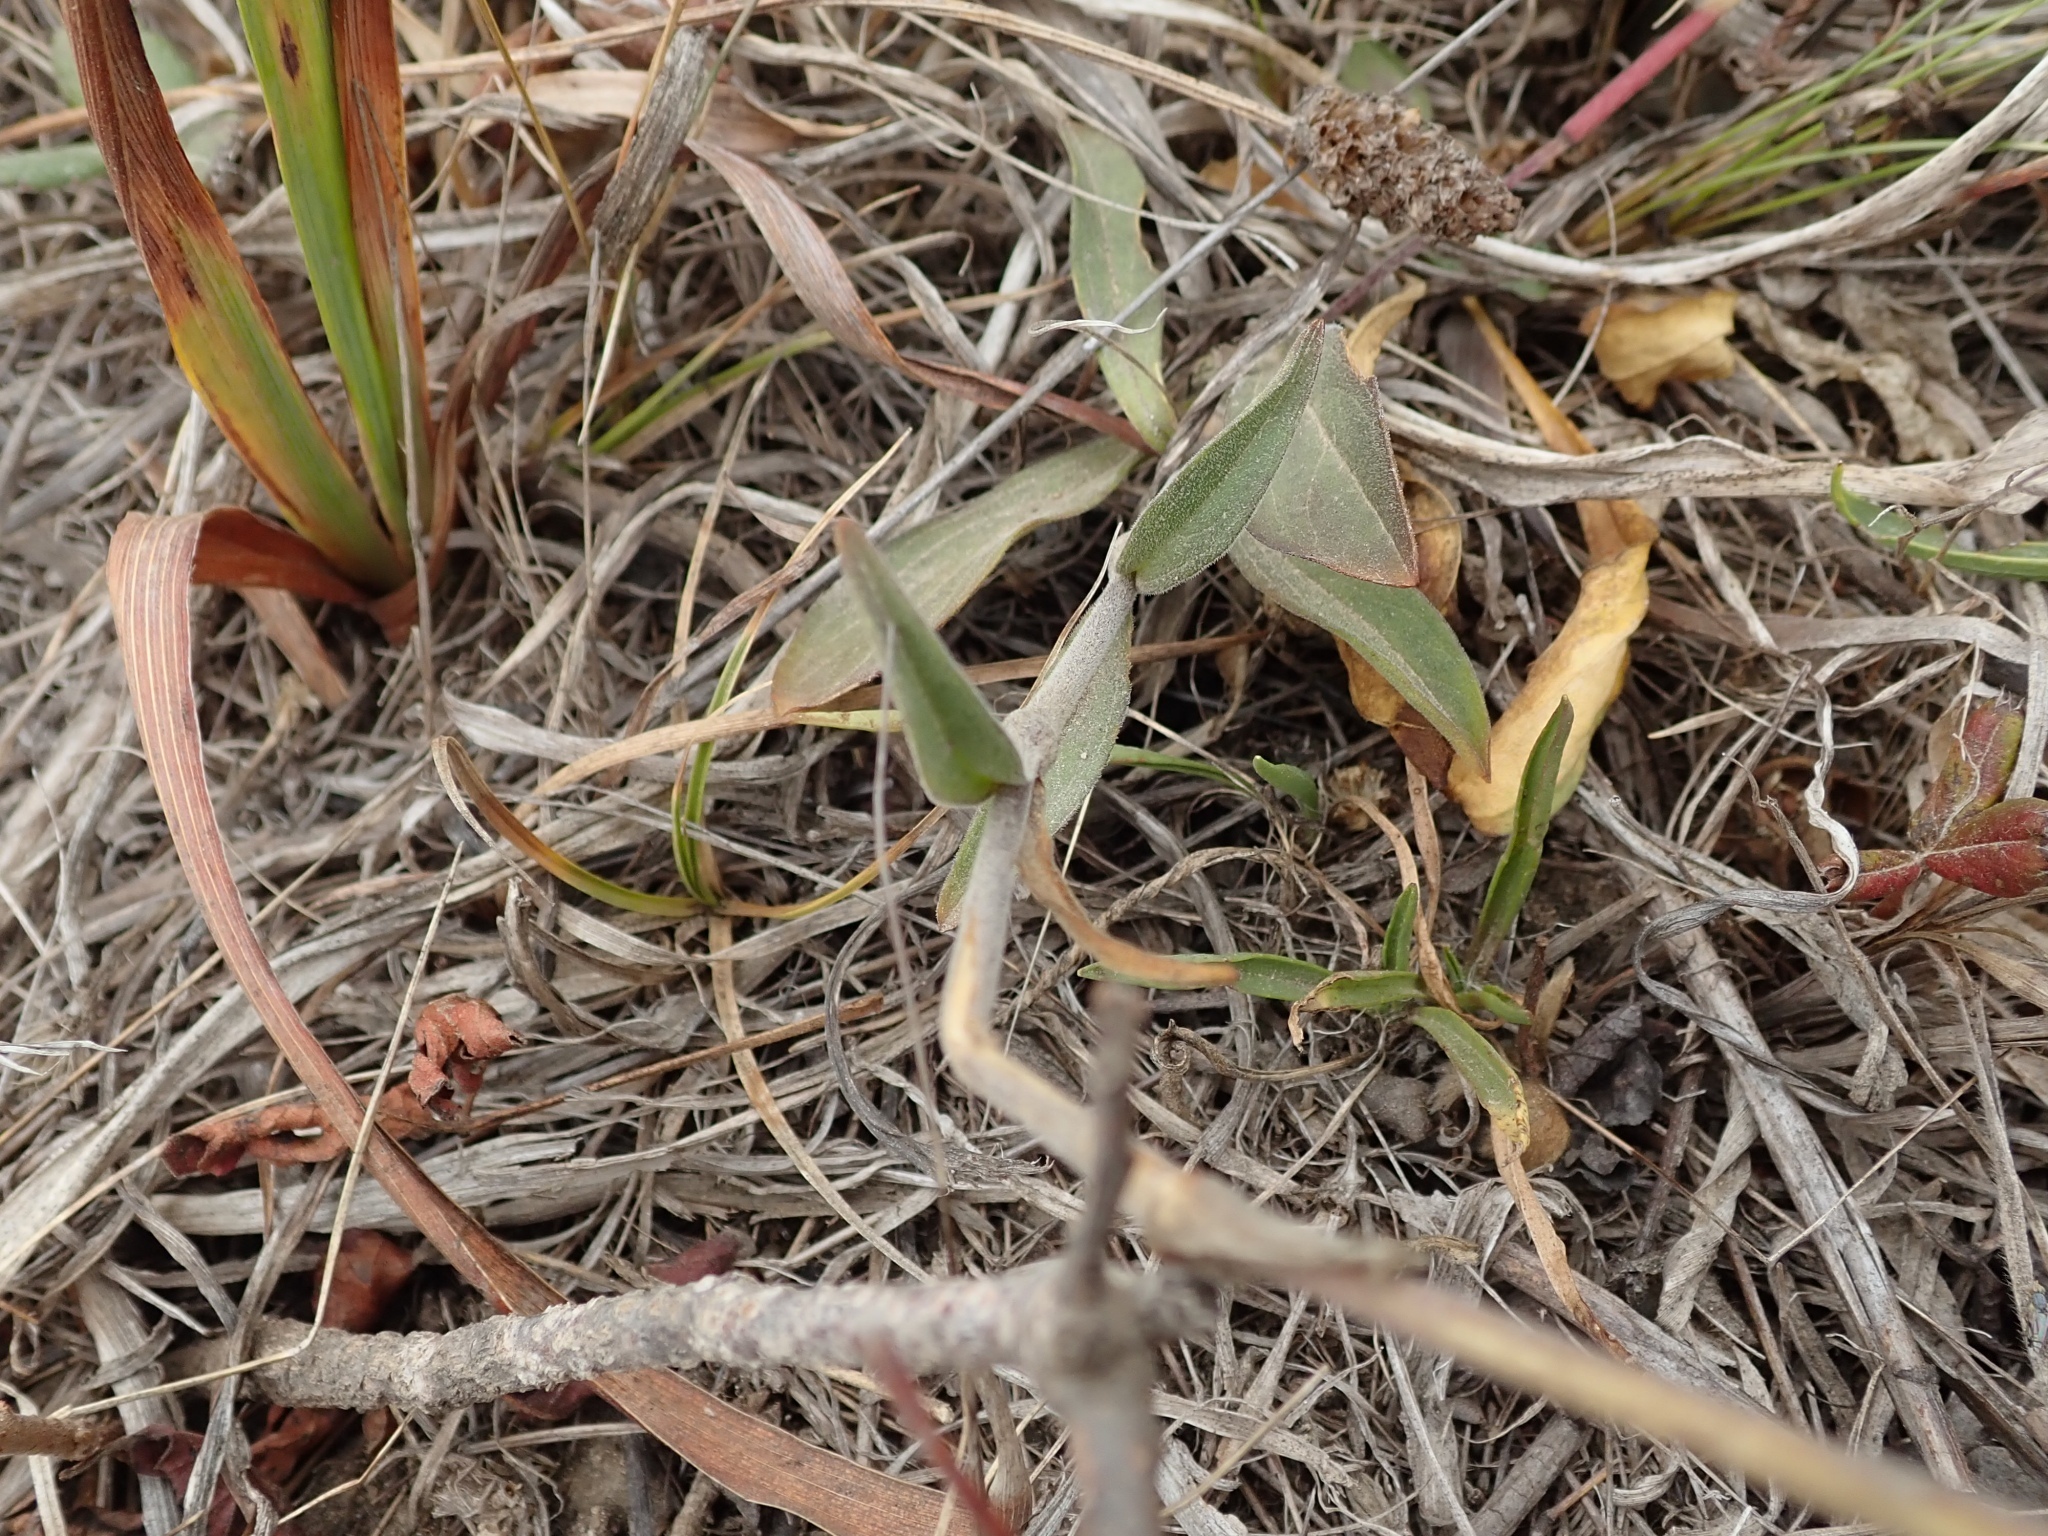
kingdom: Plantae
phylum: Tracheophyta
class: Magnoliopsida
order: Caryophyllales
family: Caryophyllaceae
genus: Silene
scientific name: Silene scouleri
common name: Scouler's campion
